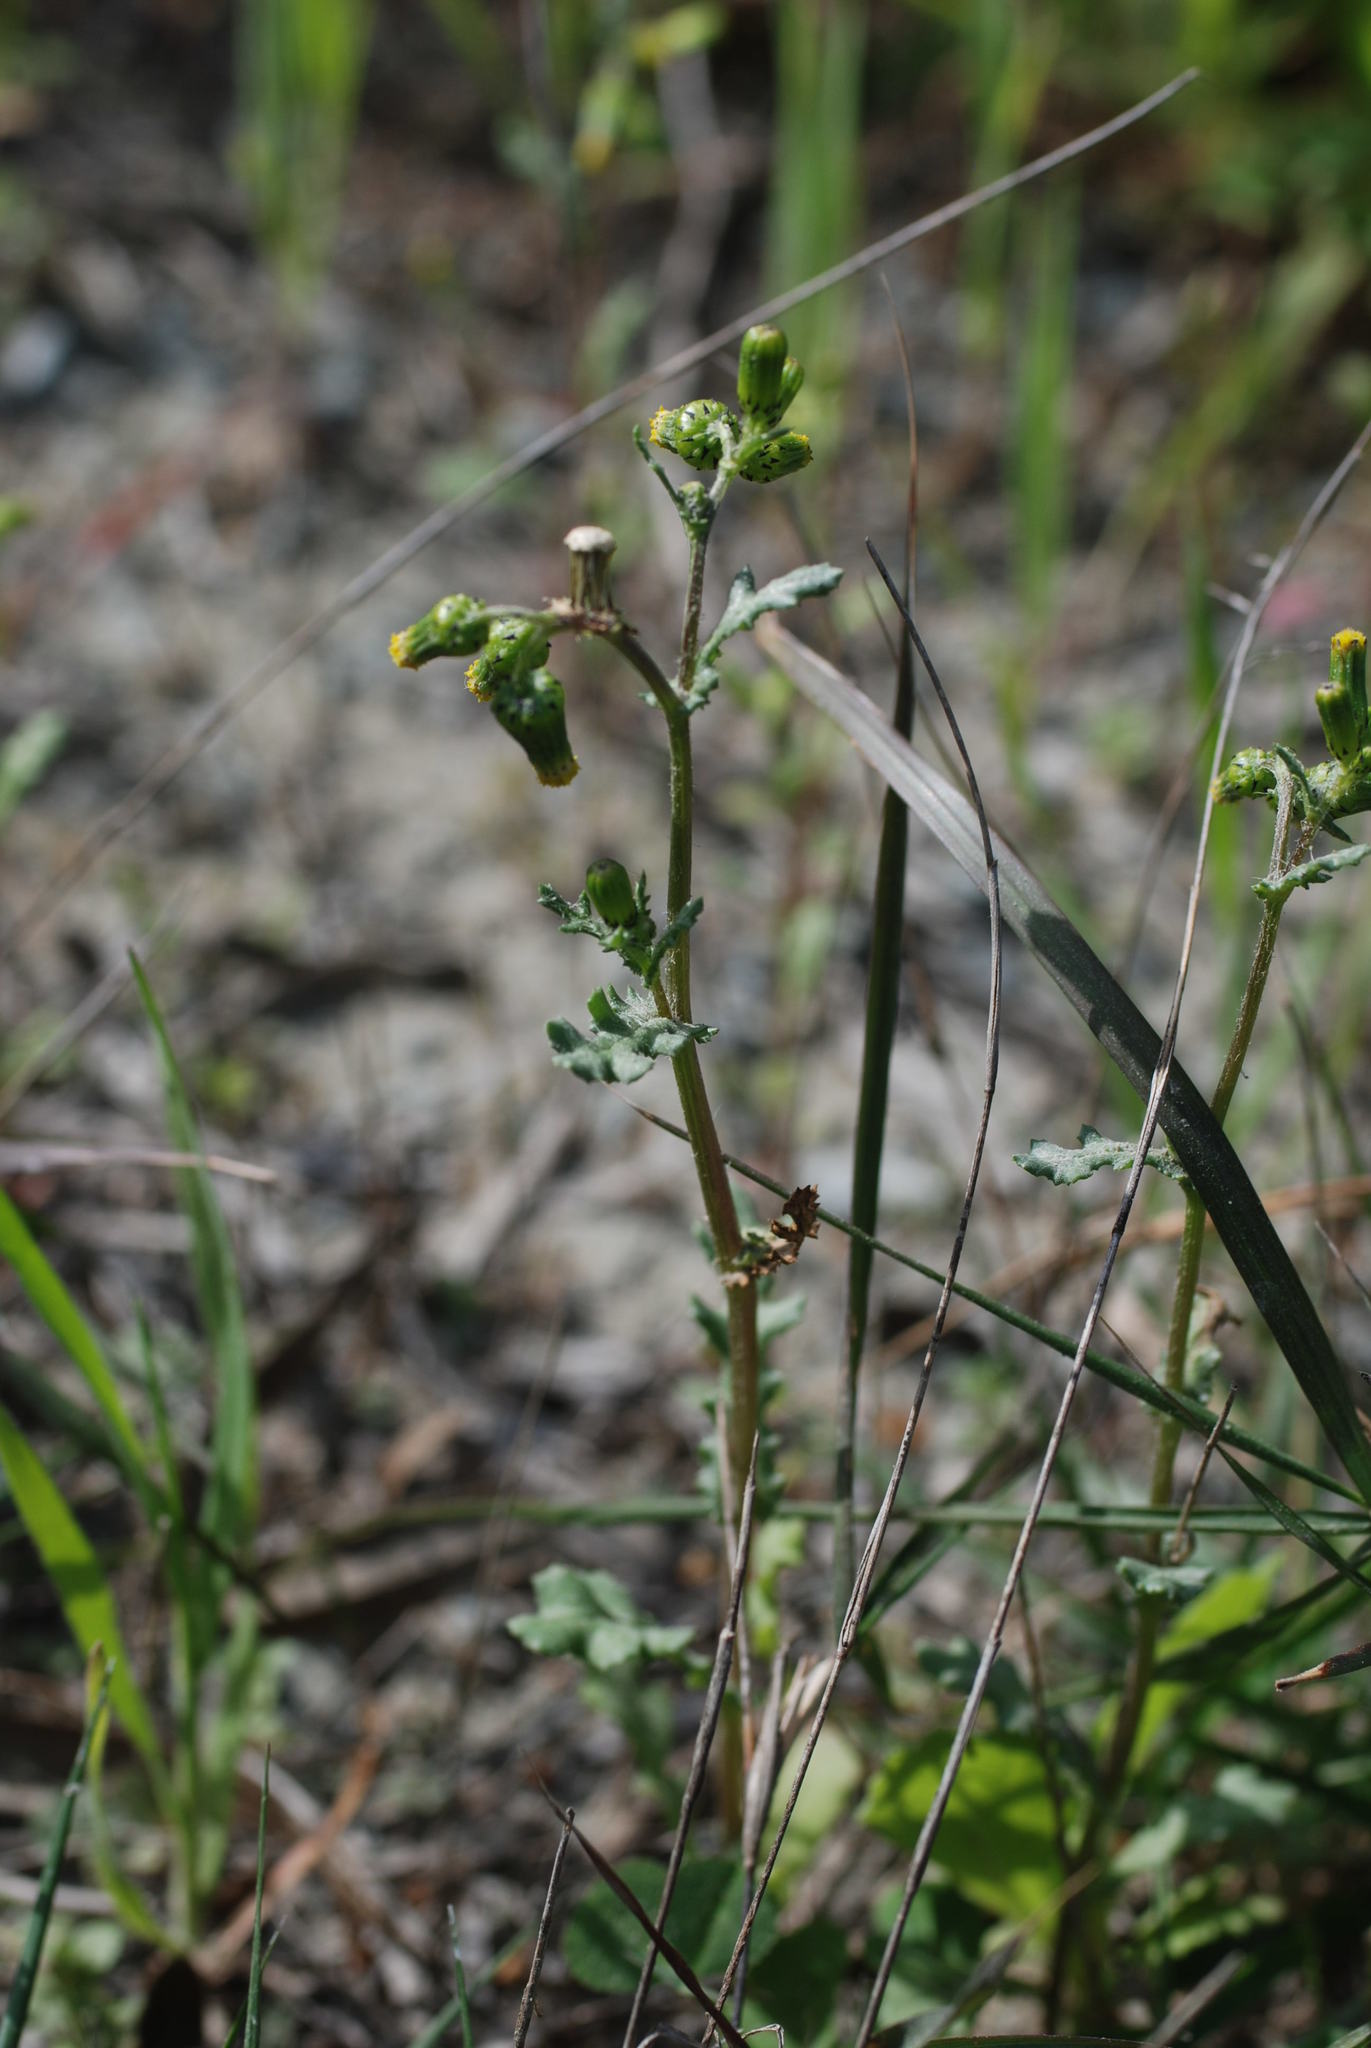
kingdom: Plantae
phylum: Tracheophyta
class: Magnoliopsida
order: Asterales
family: Asteraceae
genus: Senecio
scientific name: Senecio vulgaris
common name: Old-man-in-the-spring
